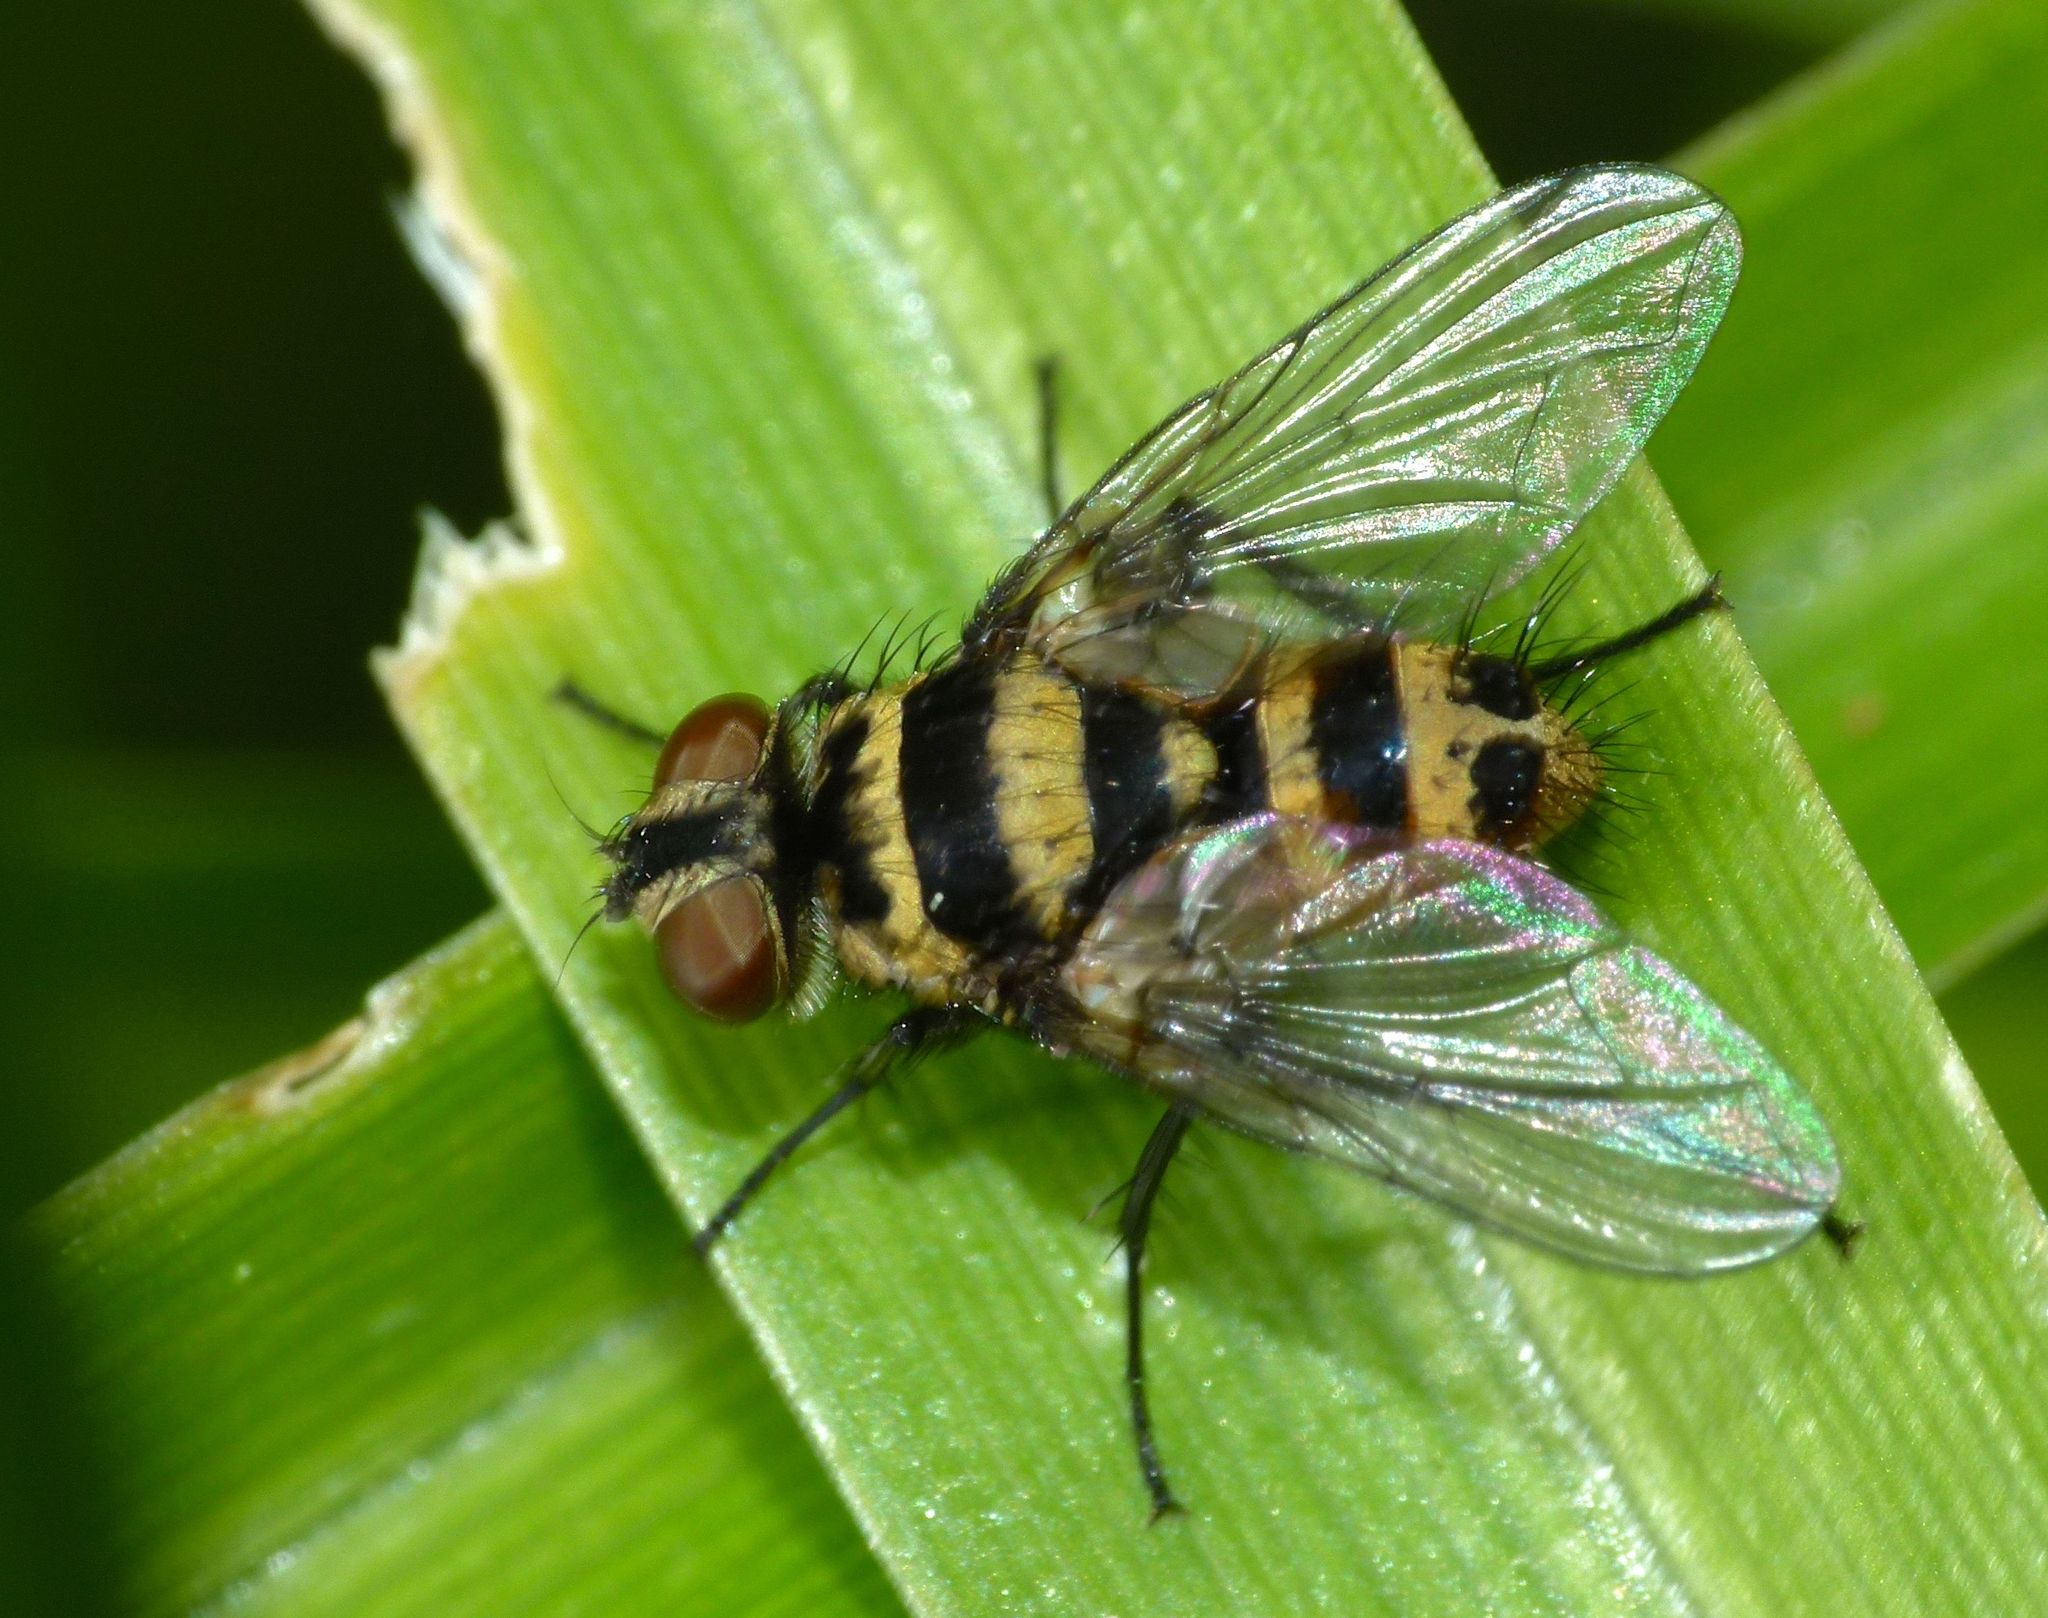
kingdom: Animalia
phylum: Arthropoda
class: Insecta
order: Diptera
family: Tachinidae
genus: Trigonospila
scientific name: Trigonospila brevifacies
